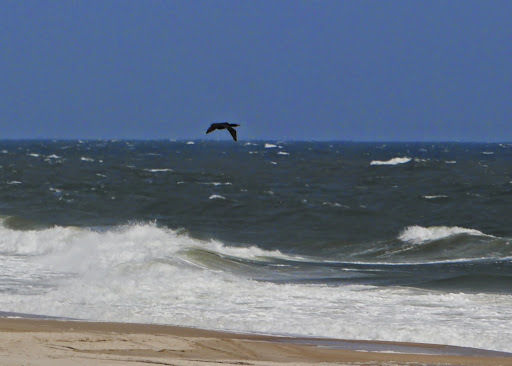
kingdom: Animalia
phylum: Chordata
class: Aves
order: Suliformes
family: Phalacrocoracidae
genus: Phalacrocorax
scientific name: Phalacrocorax auritus
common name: Double-crested cormorant
